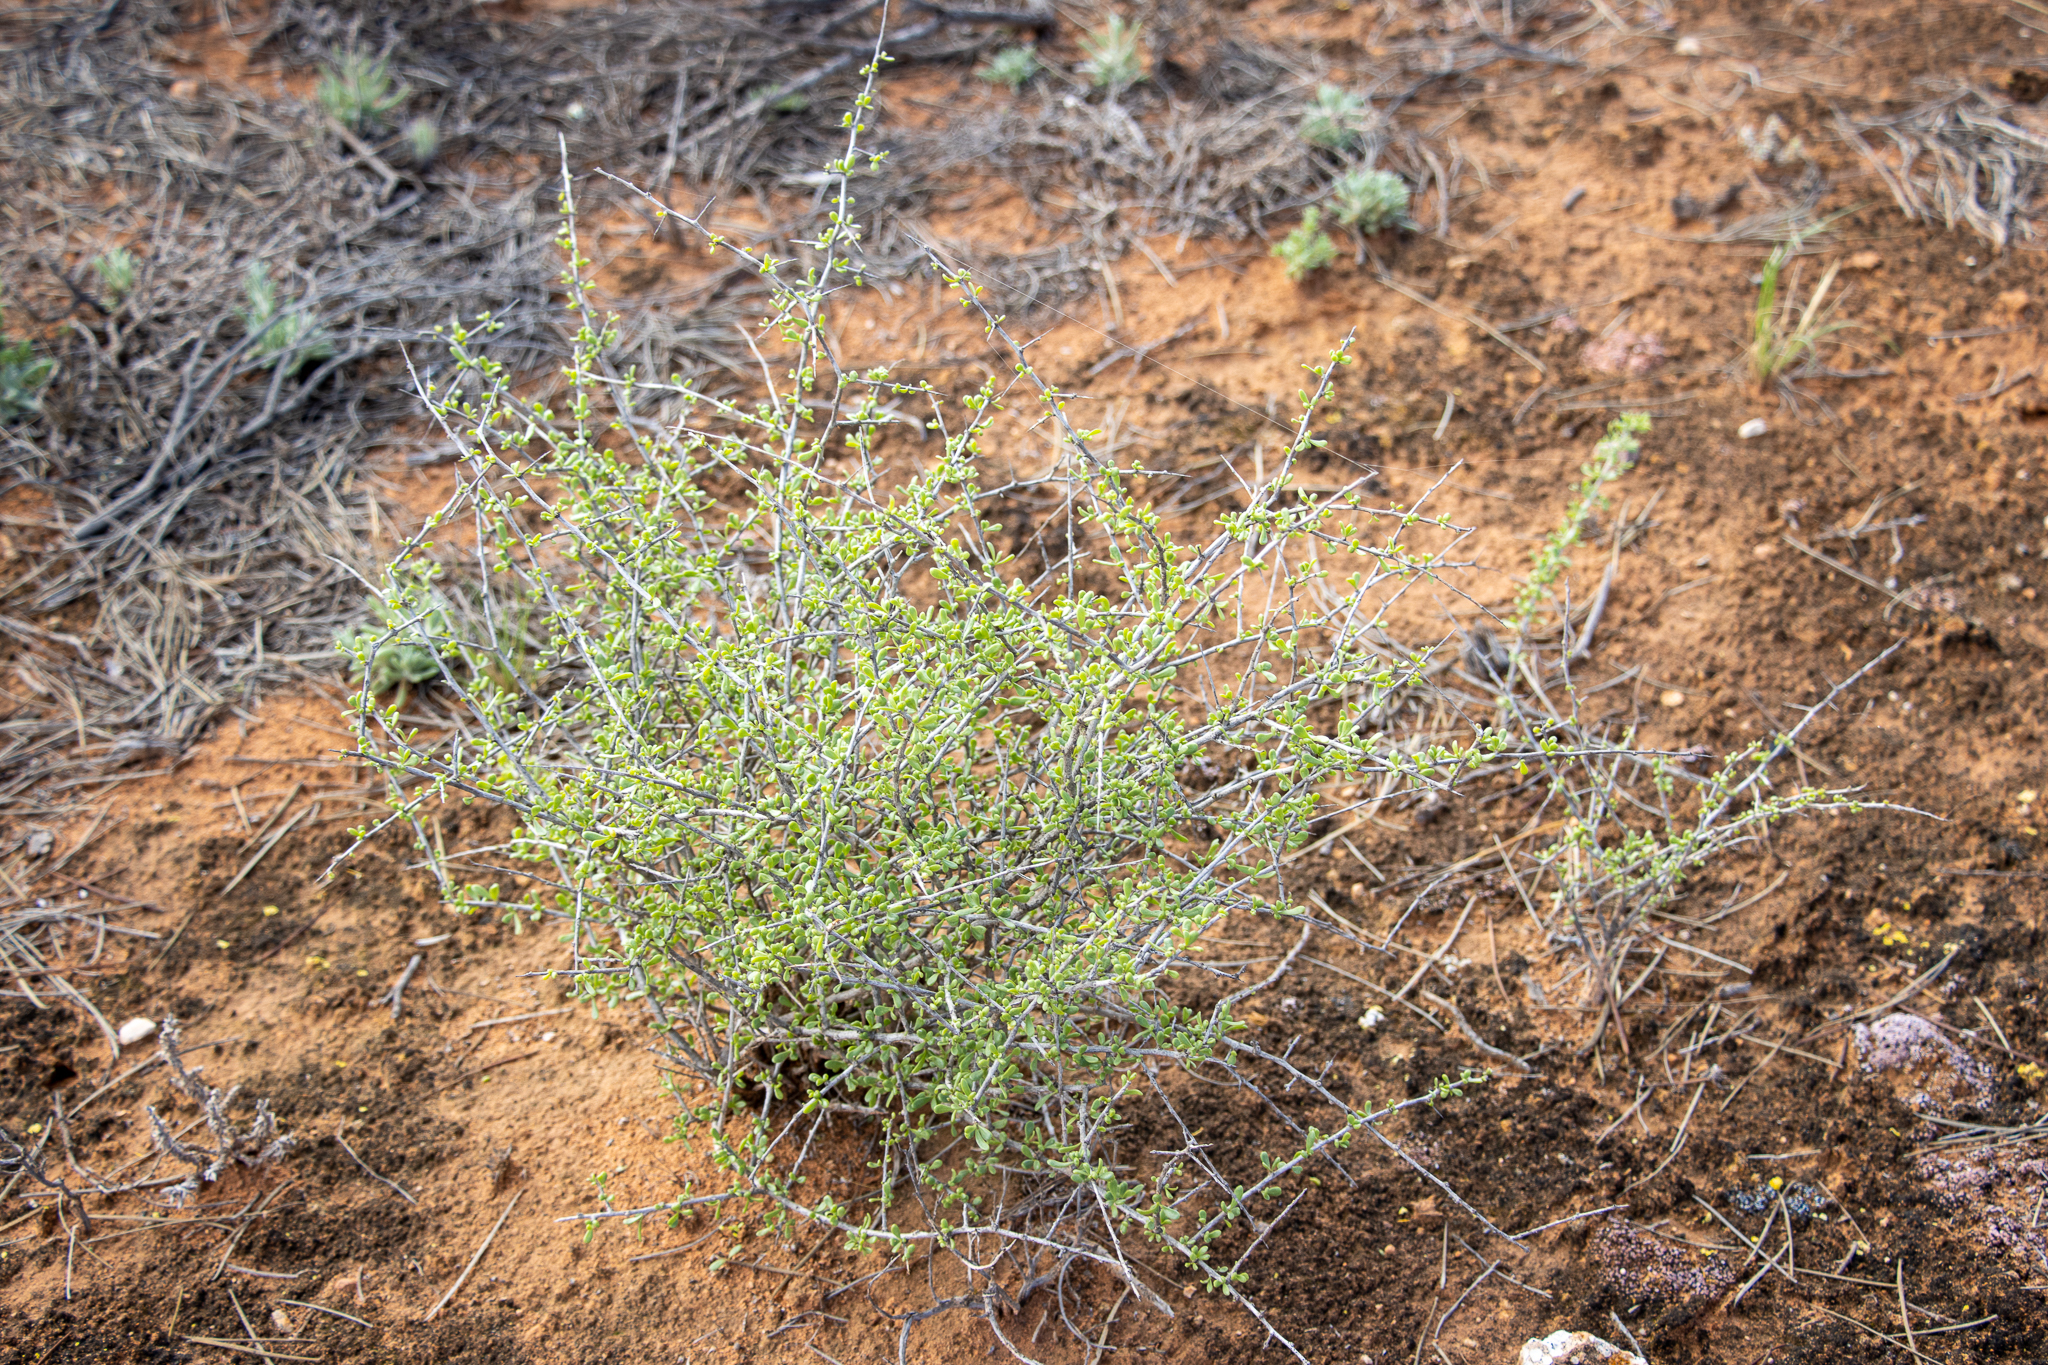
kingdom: Plantae
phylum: Tracheophyta
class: Magnoliopsida
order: Solanales
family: Solanaceae
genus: Lycium
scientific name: Lycium australe
